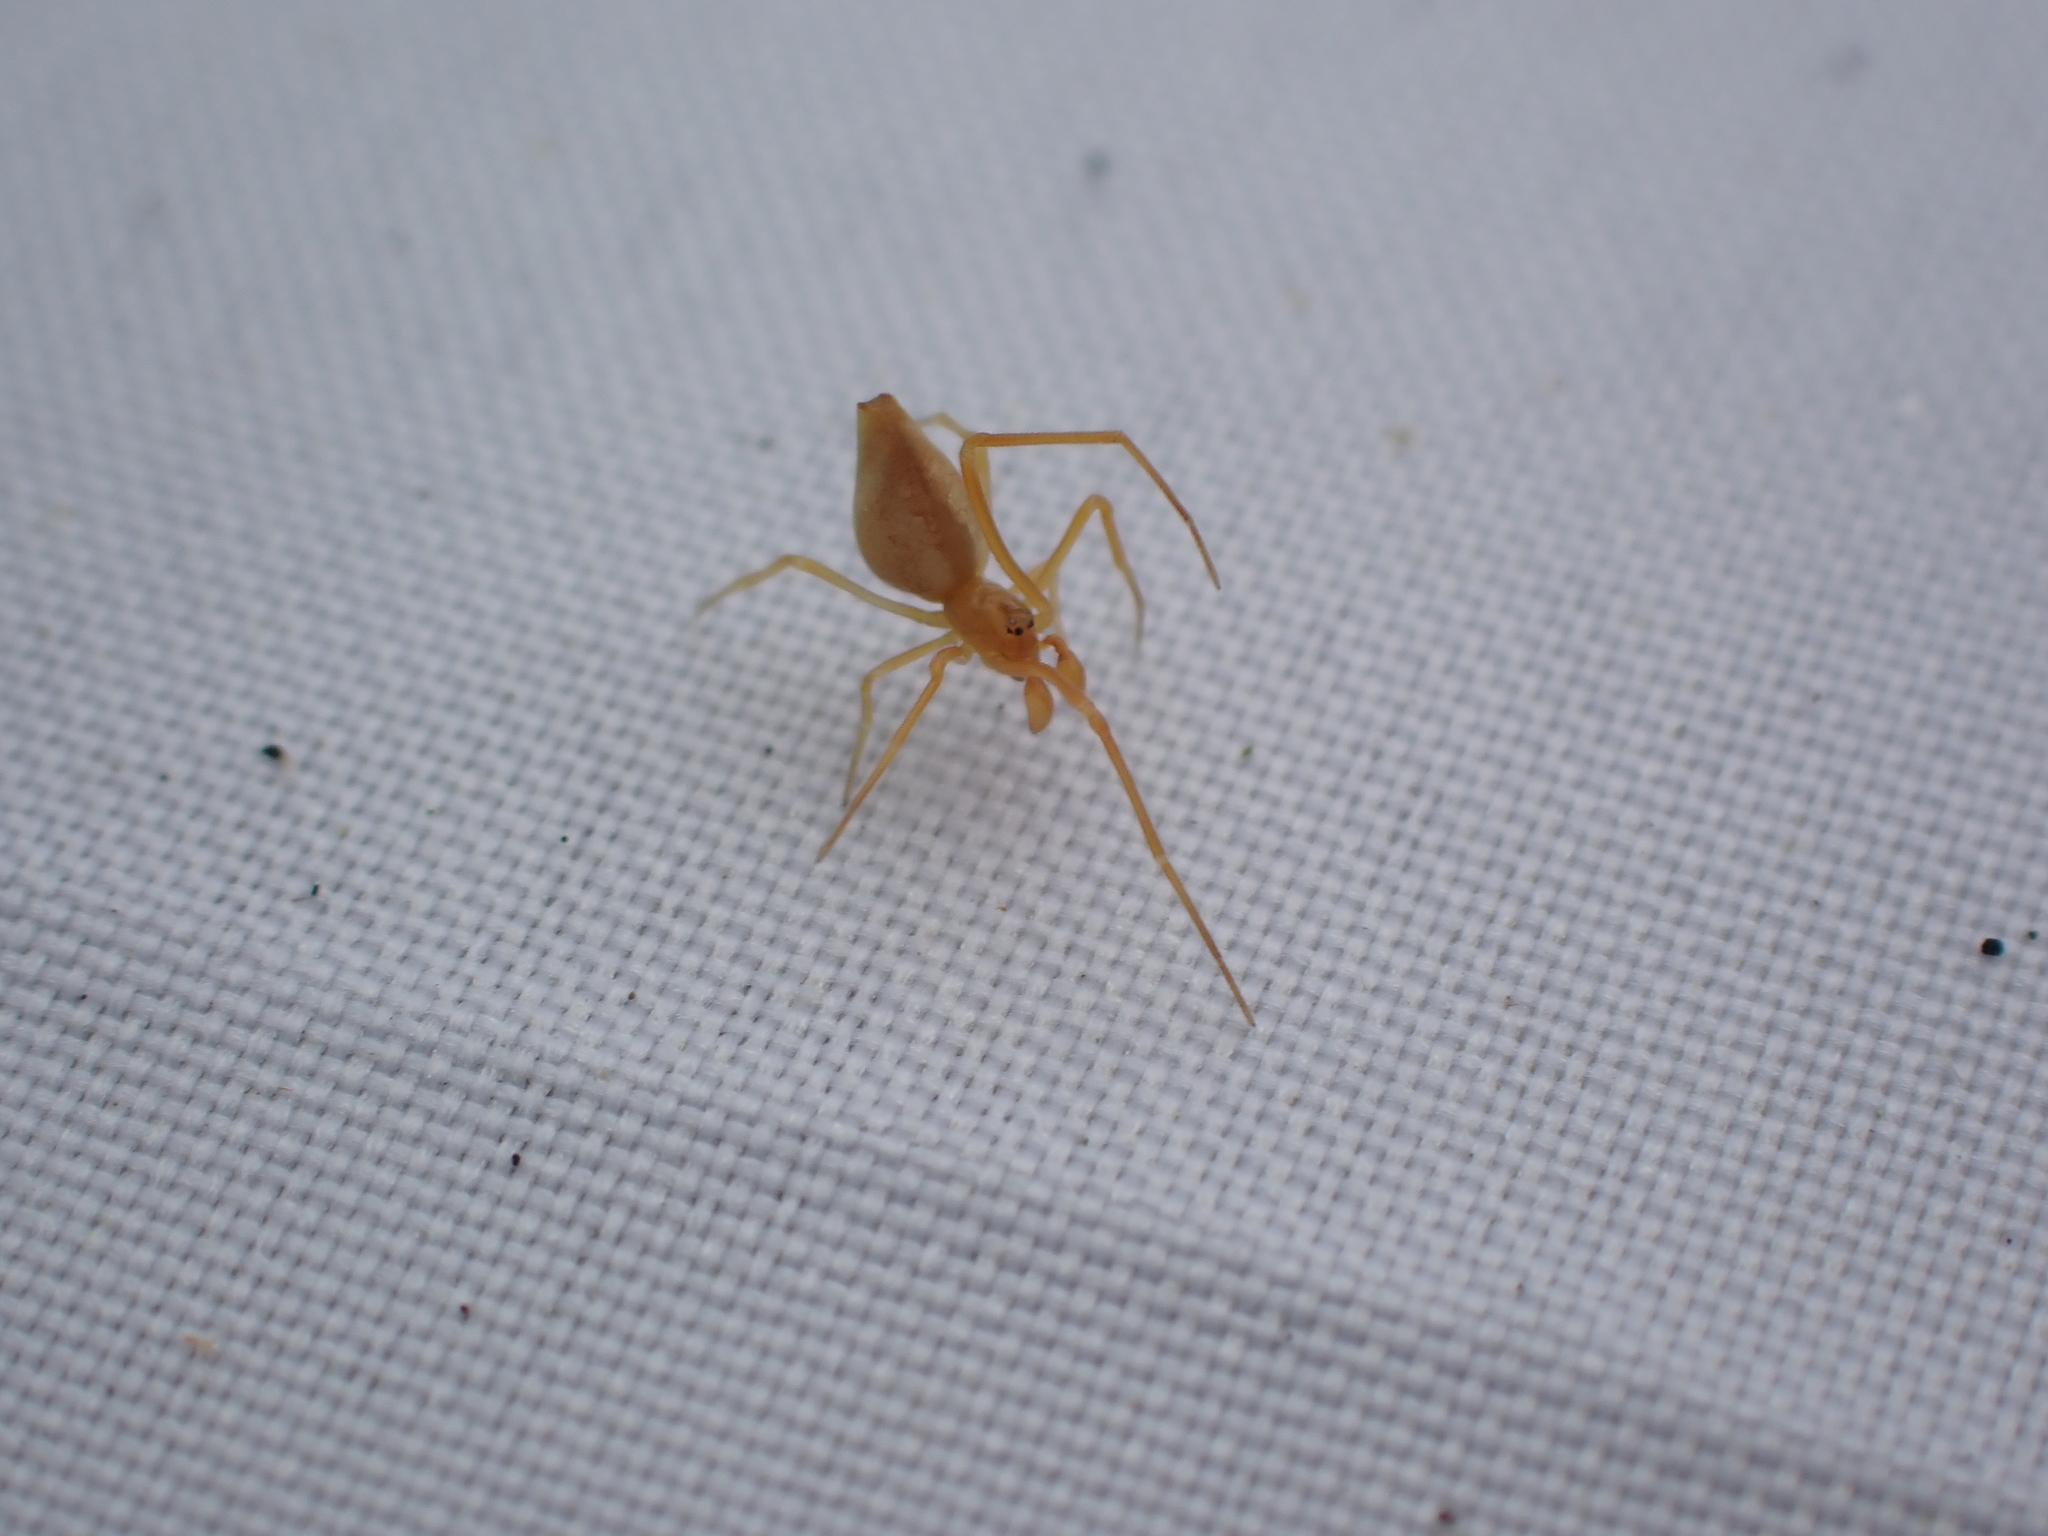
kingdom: Animalia
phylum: Arthropoda
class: Arachnida
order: Araneae
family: Theridiidae
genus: Neospintharus
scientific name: Neospintharus trigonum
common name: Horned parasitic cobweaver
